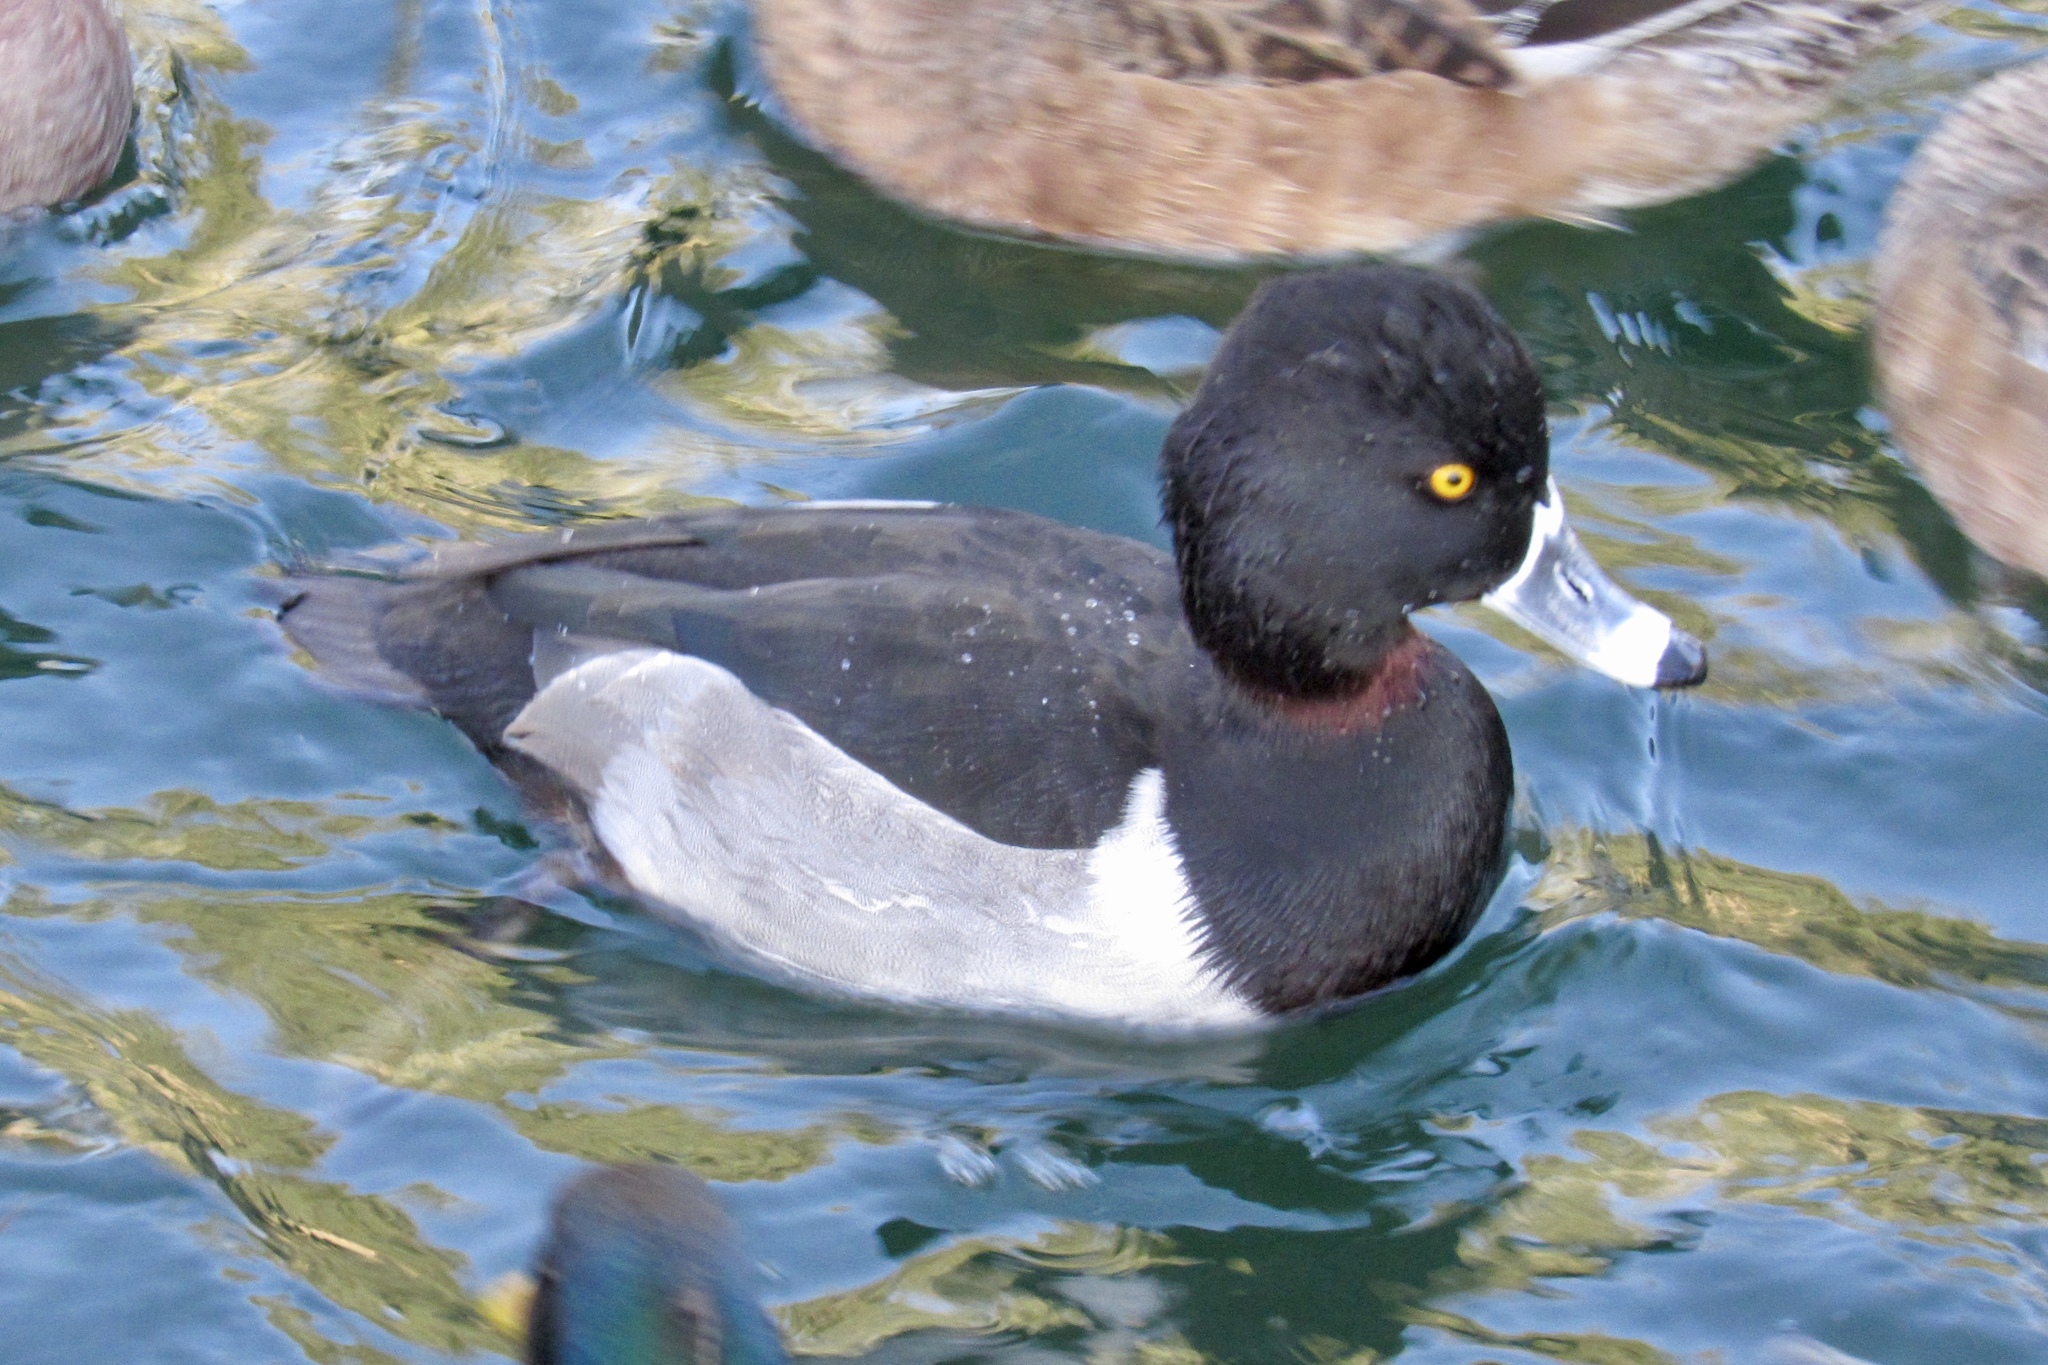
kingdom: Animalia
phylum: Chordata
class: Aves
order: Anseriformes
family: Anatidae
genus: Aythya
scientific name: Aythya collaris
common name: Ring-necked duck
